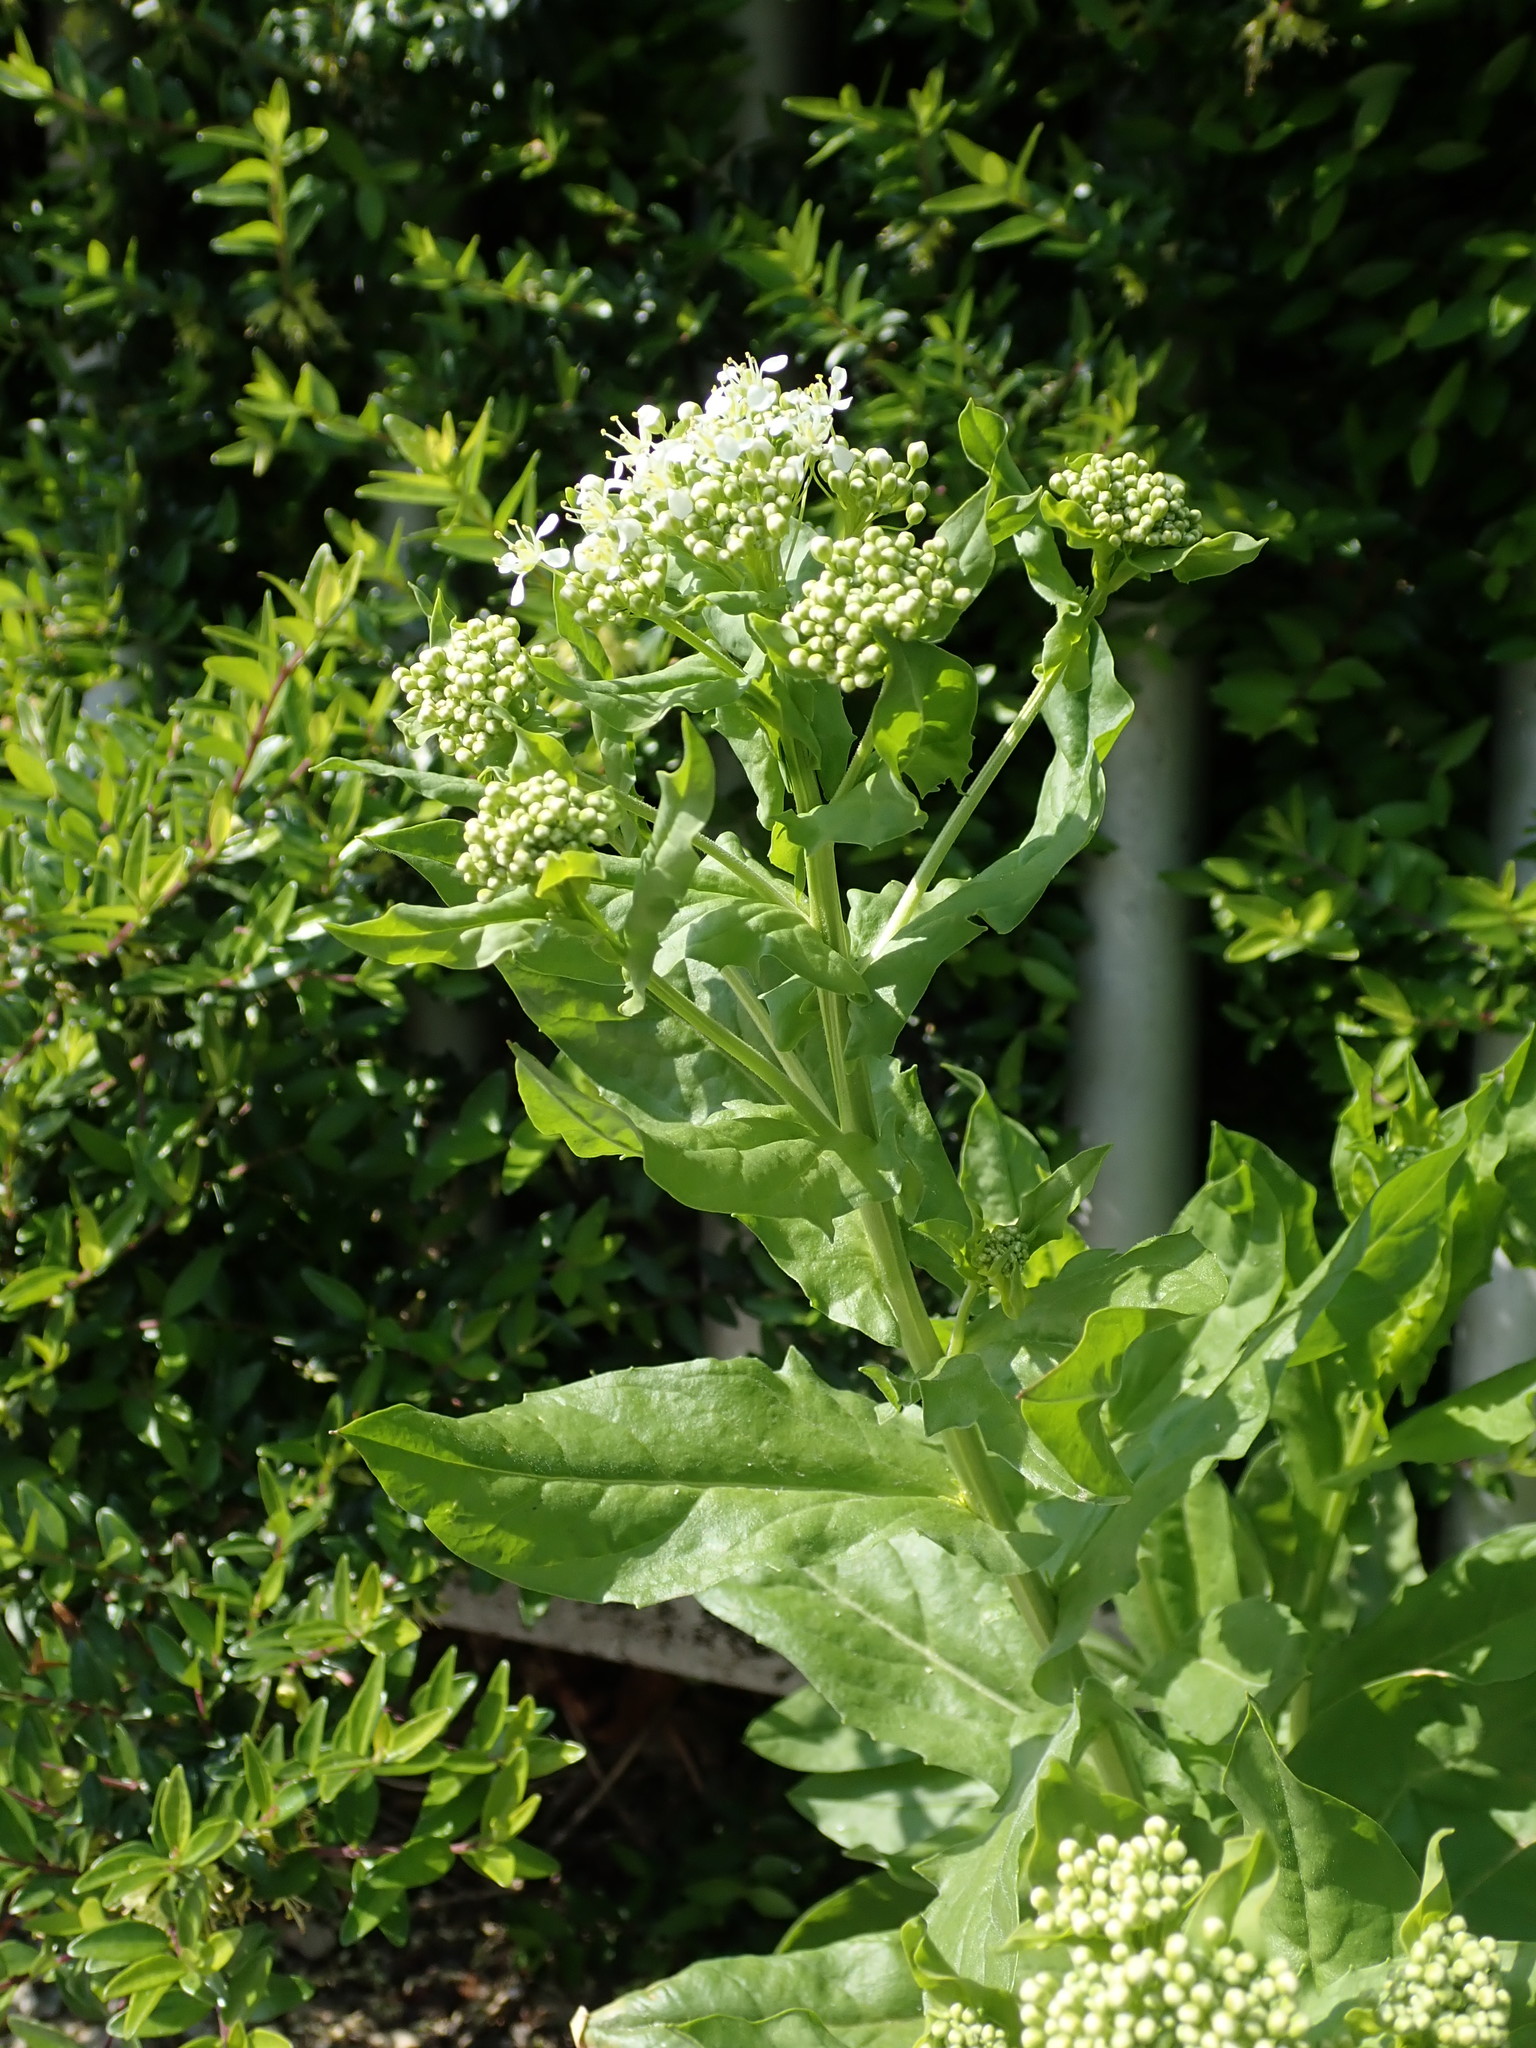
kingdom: Plantae
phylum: Tracheophyta
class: Magnoliopsida
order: Brassicales
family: Brassicaceae
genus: Lepidium
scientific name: Lepidium draba
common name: Hoary cress
